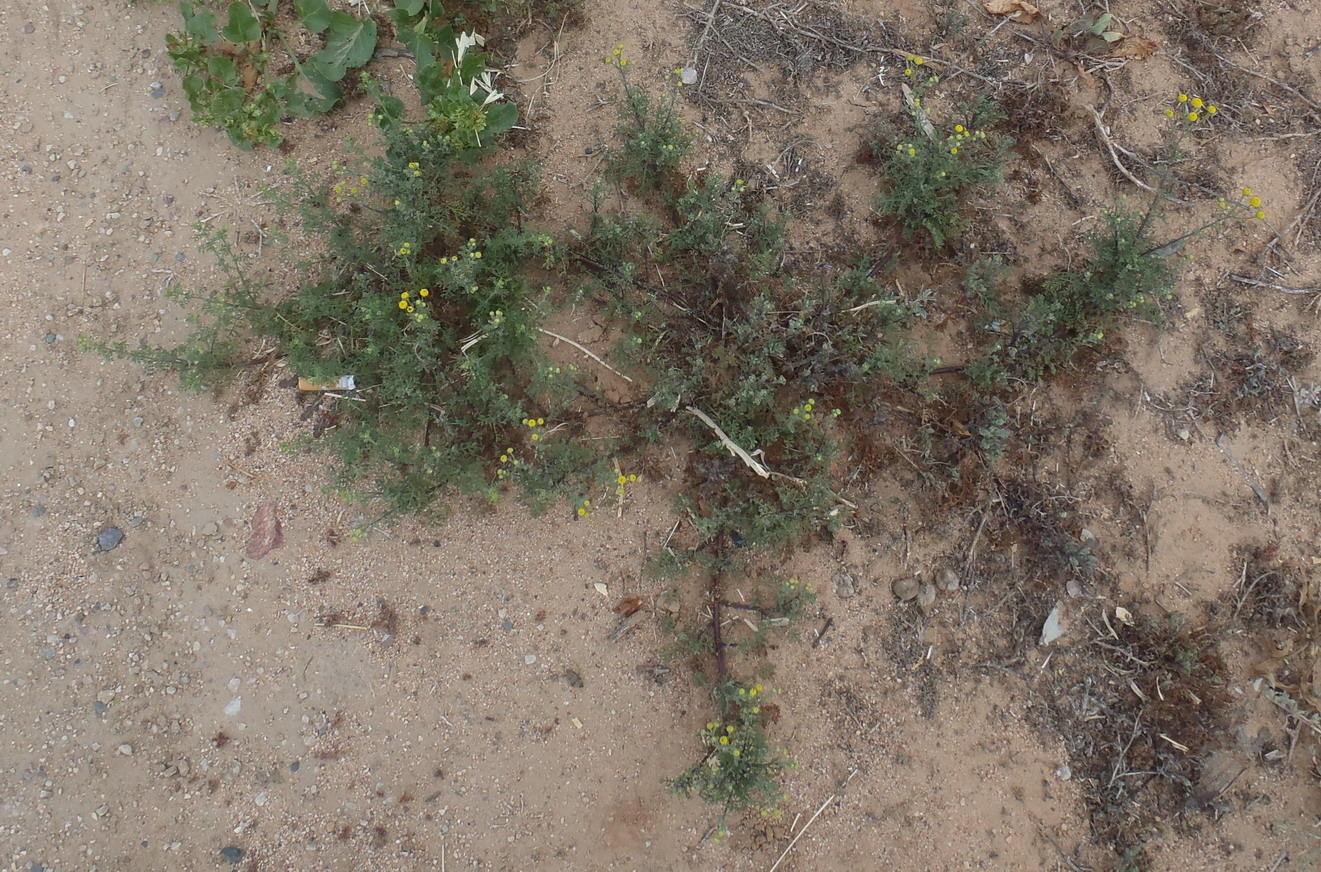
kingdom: Plantae
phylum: Tracheophyta
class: Magnoliopsida
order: Asterales
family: Asteraceae
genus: Oncosiphon
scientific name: Oncosiphon pilulifer
